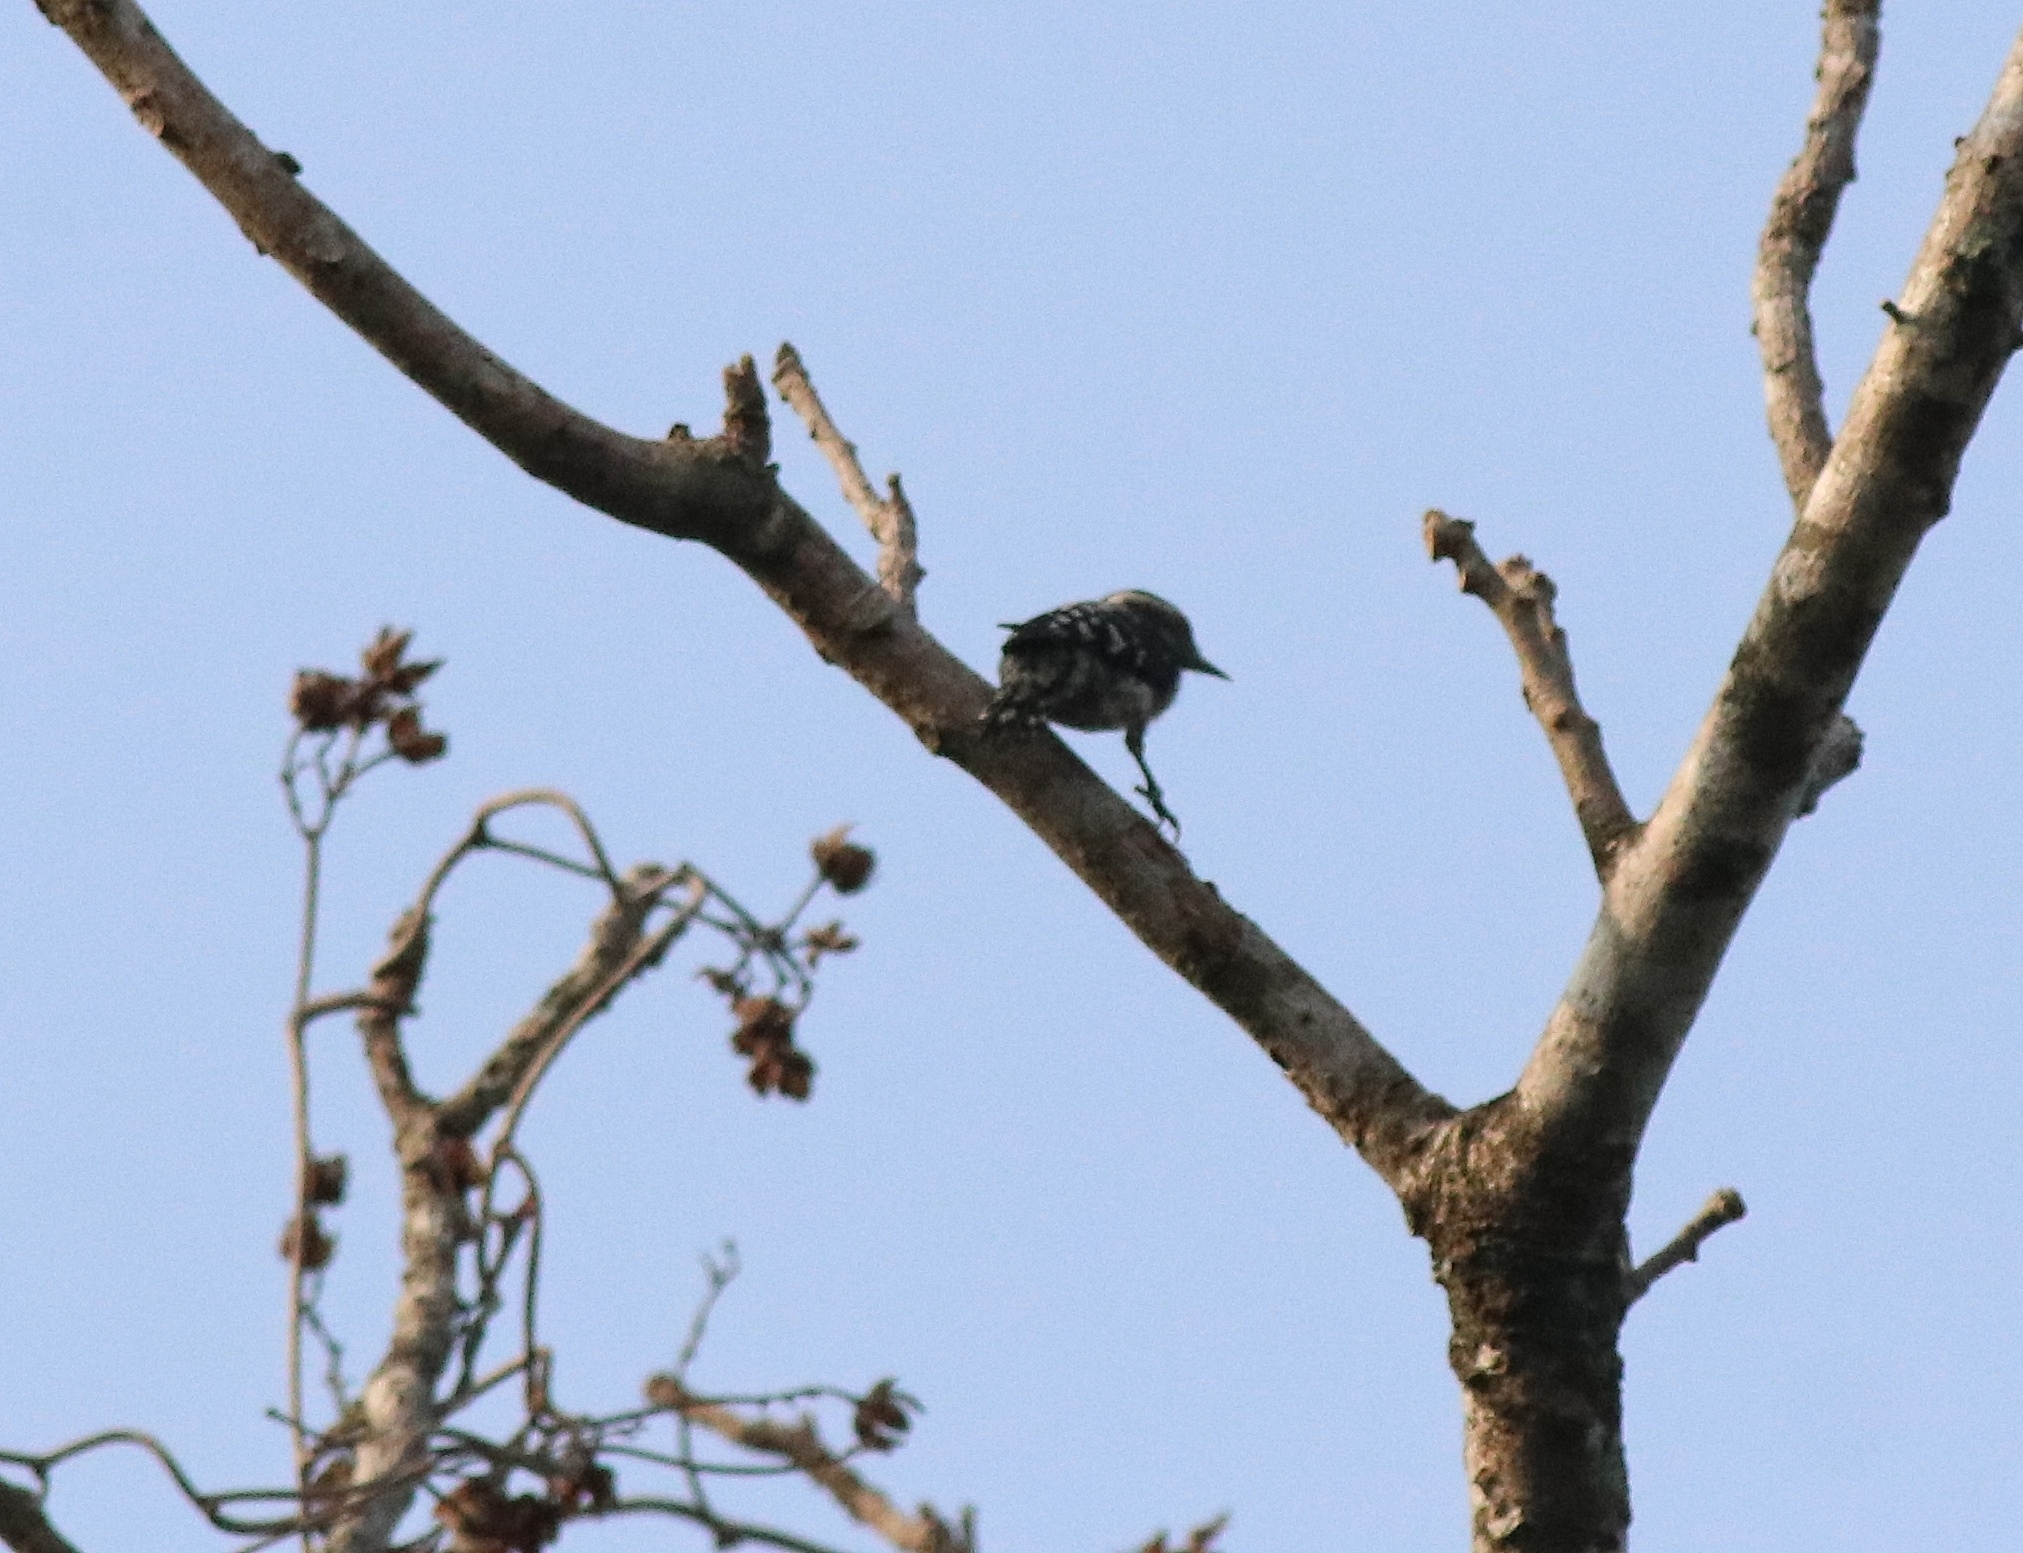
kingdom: Animalia
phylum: Chordata
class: Aves
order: Piciformes
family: Picidae
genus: Yungipicus
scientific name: Yungipicus nanus
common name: Brown-capped pygmy woodpecker
